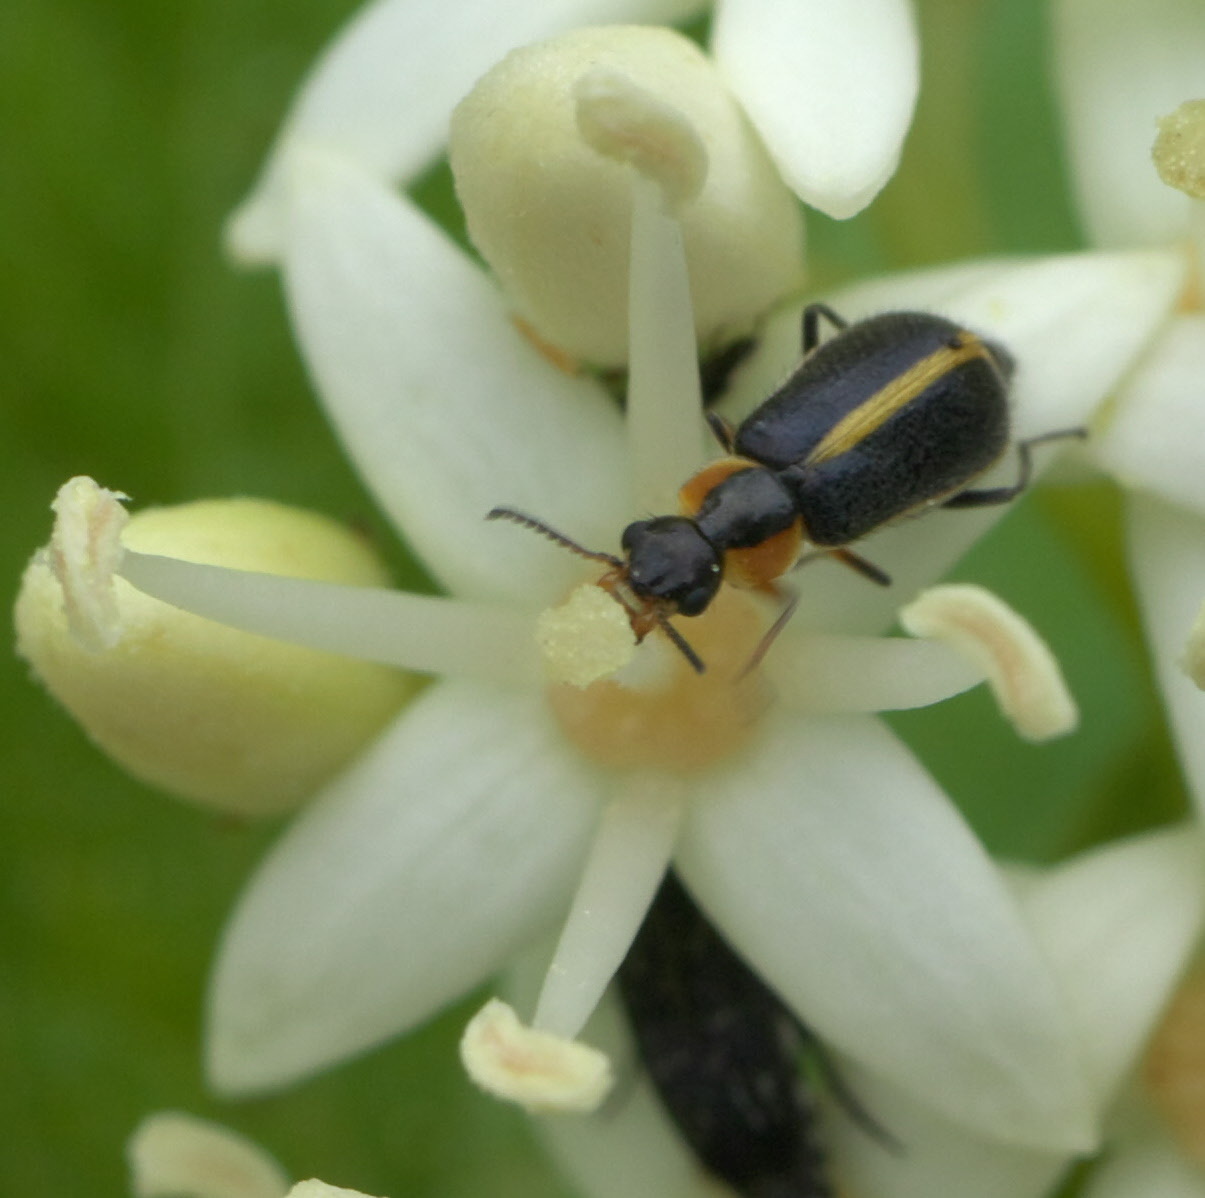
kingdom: Animalia
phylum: Arthropoda
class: Insecta
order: Coleoptera
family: Malachiidae
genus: Attalus
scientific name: Attalus
